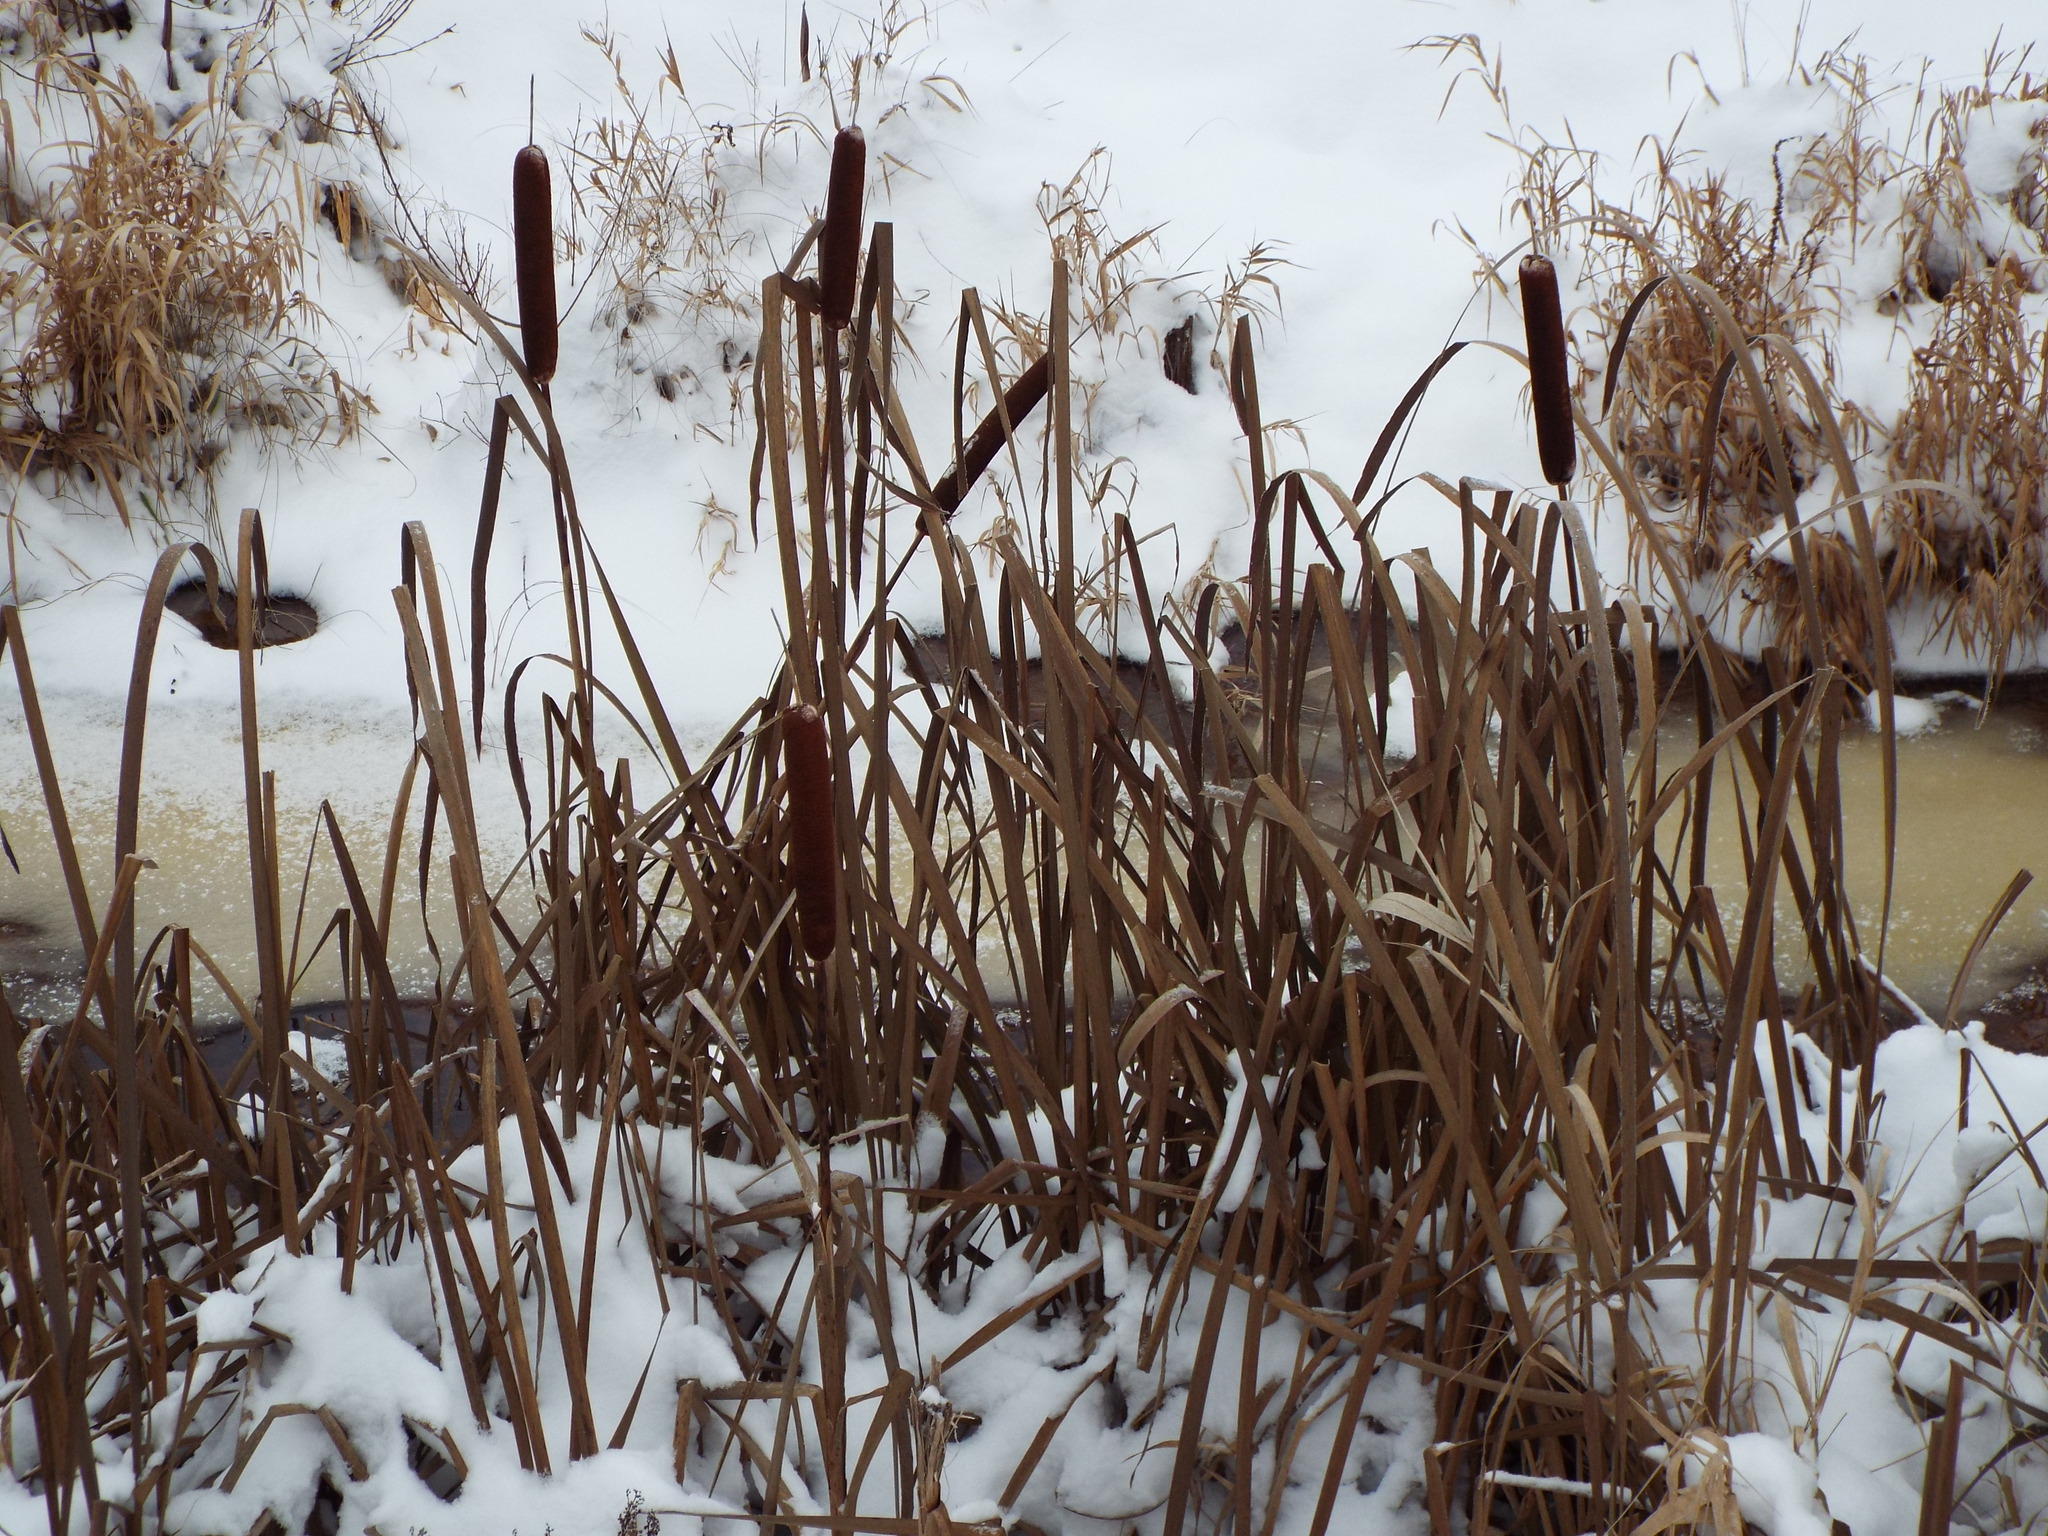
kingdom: Plantae
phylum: Tracheophyta
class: Liliopsida
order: Poales
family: Typhaceae
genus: Typha
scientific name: Typha latifolia
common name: Broadleaf cattail
